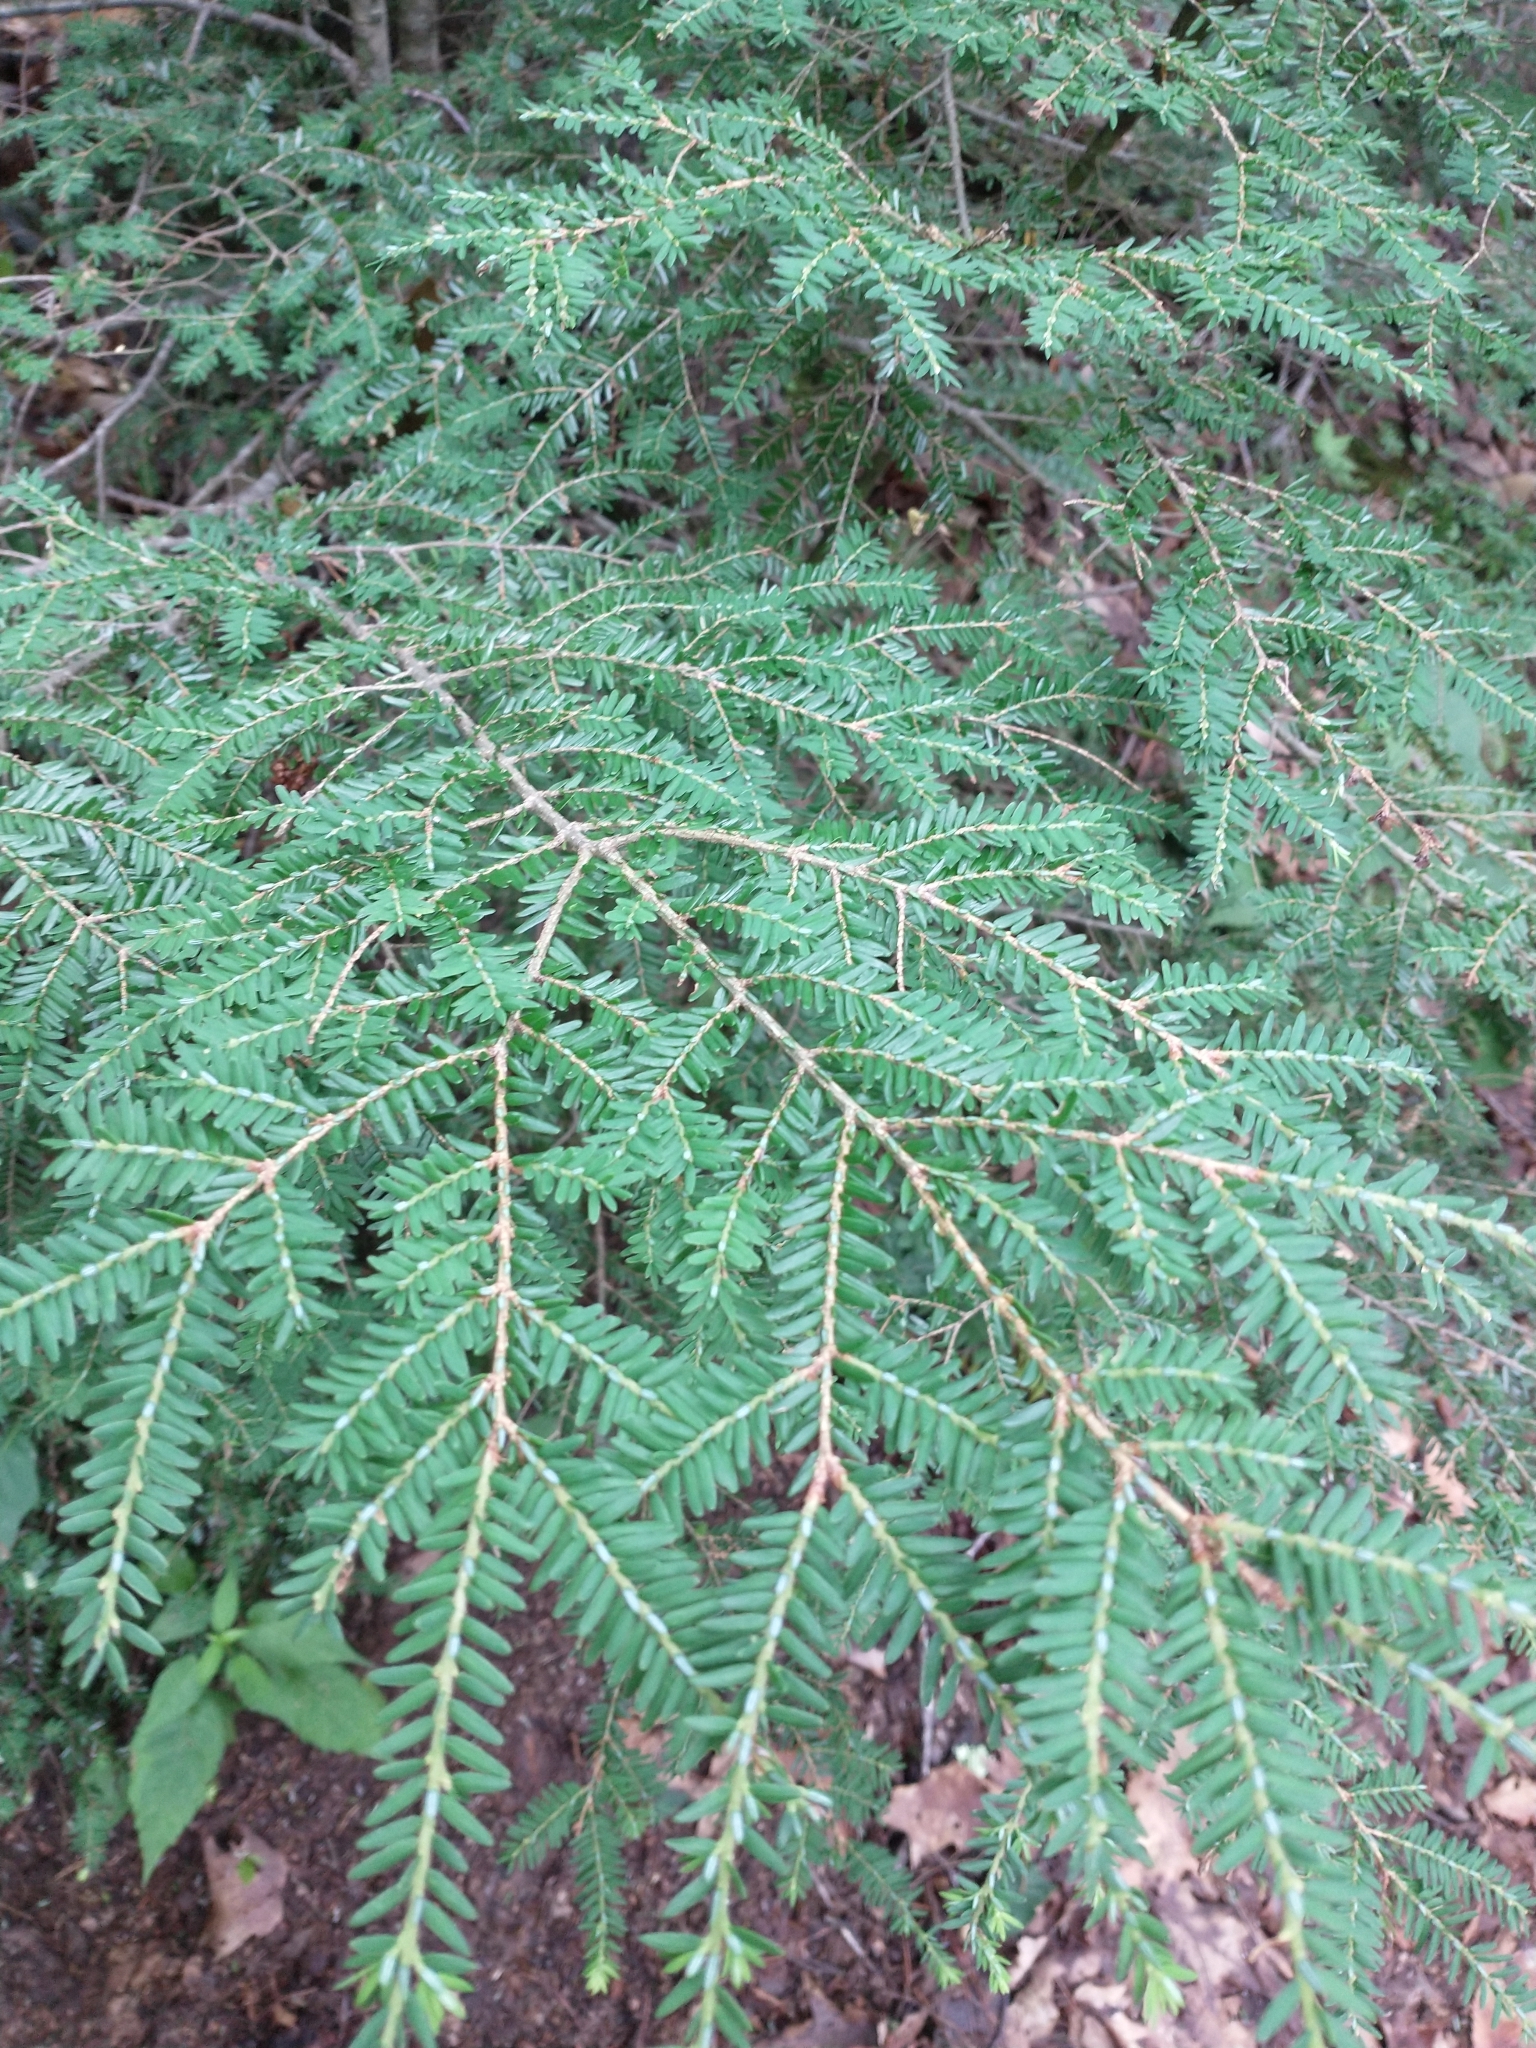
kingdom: Plantae
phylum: Tracheophyta
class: Pinopsida
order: Pinales
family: Pinaceae
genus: Tsuga
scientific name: Tsuga canadensis
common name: Eastern hemlock
